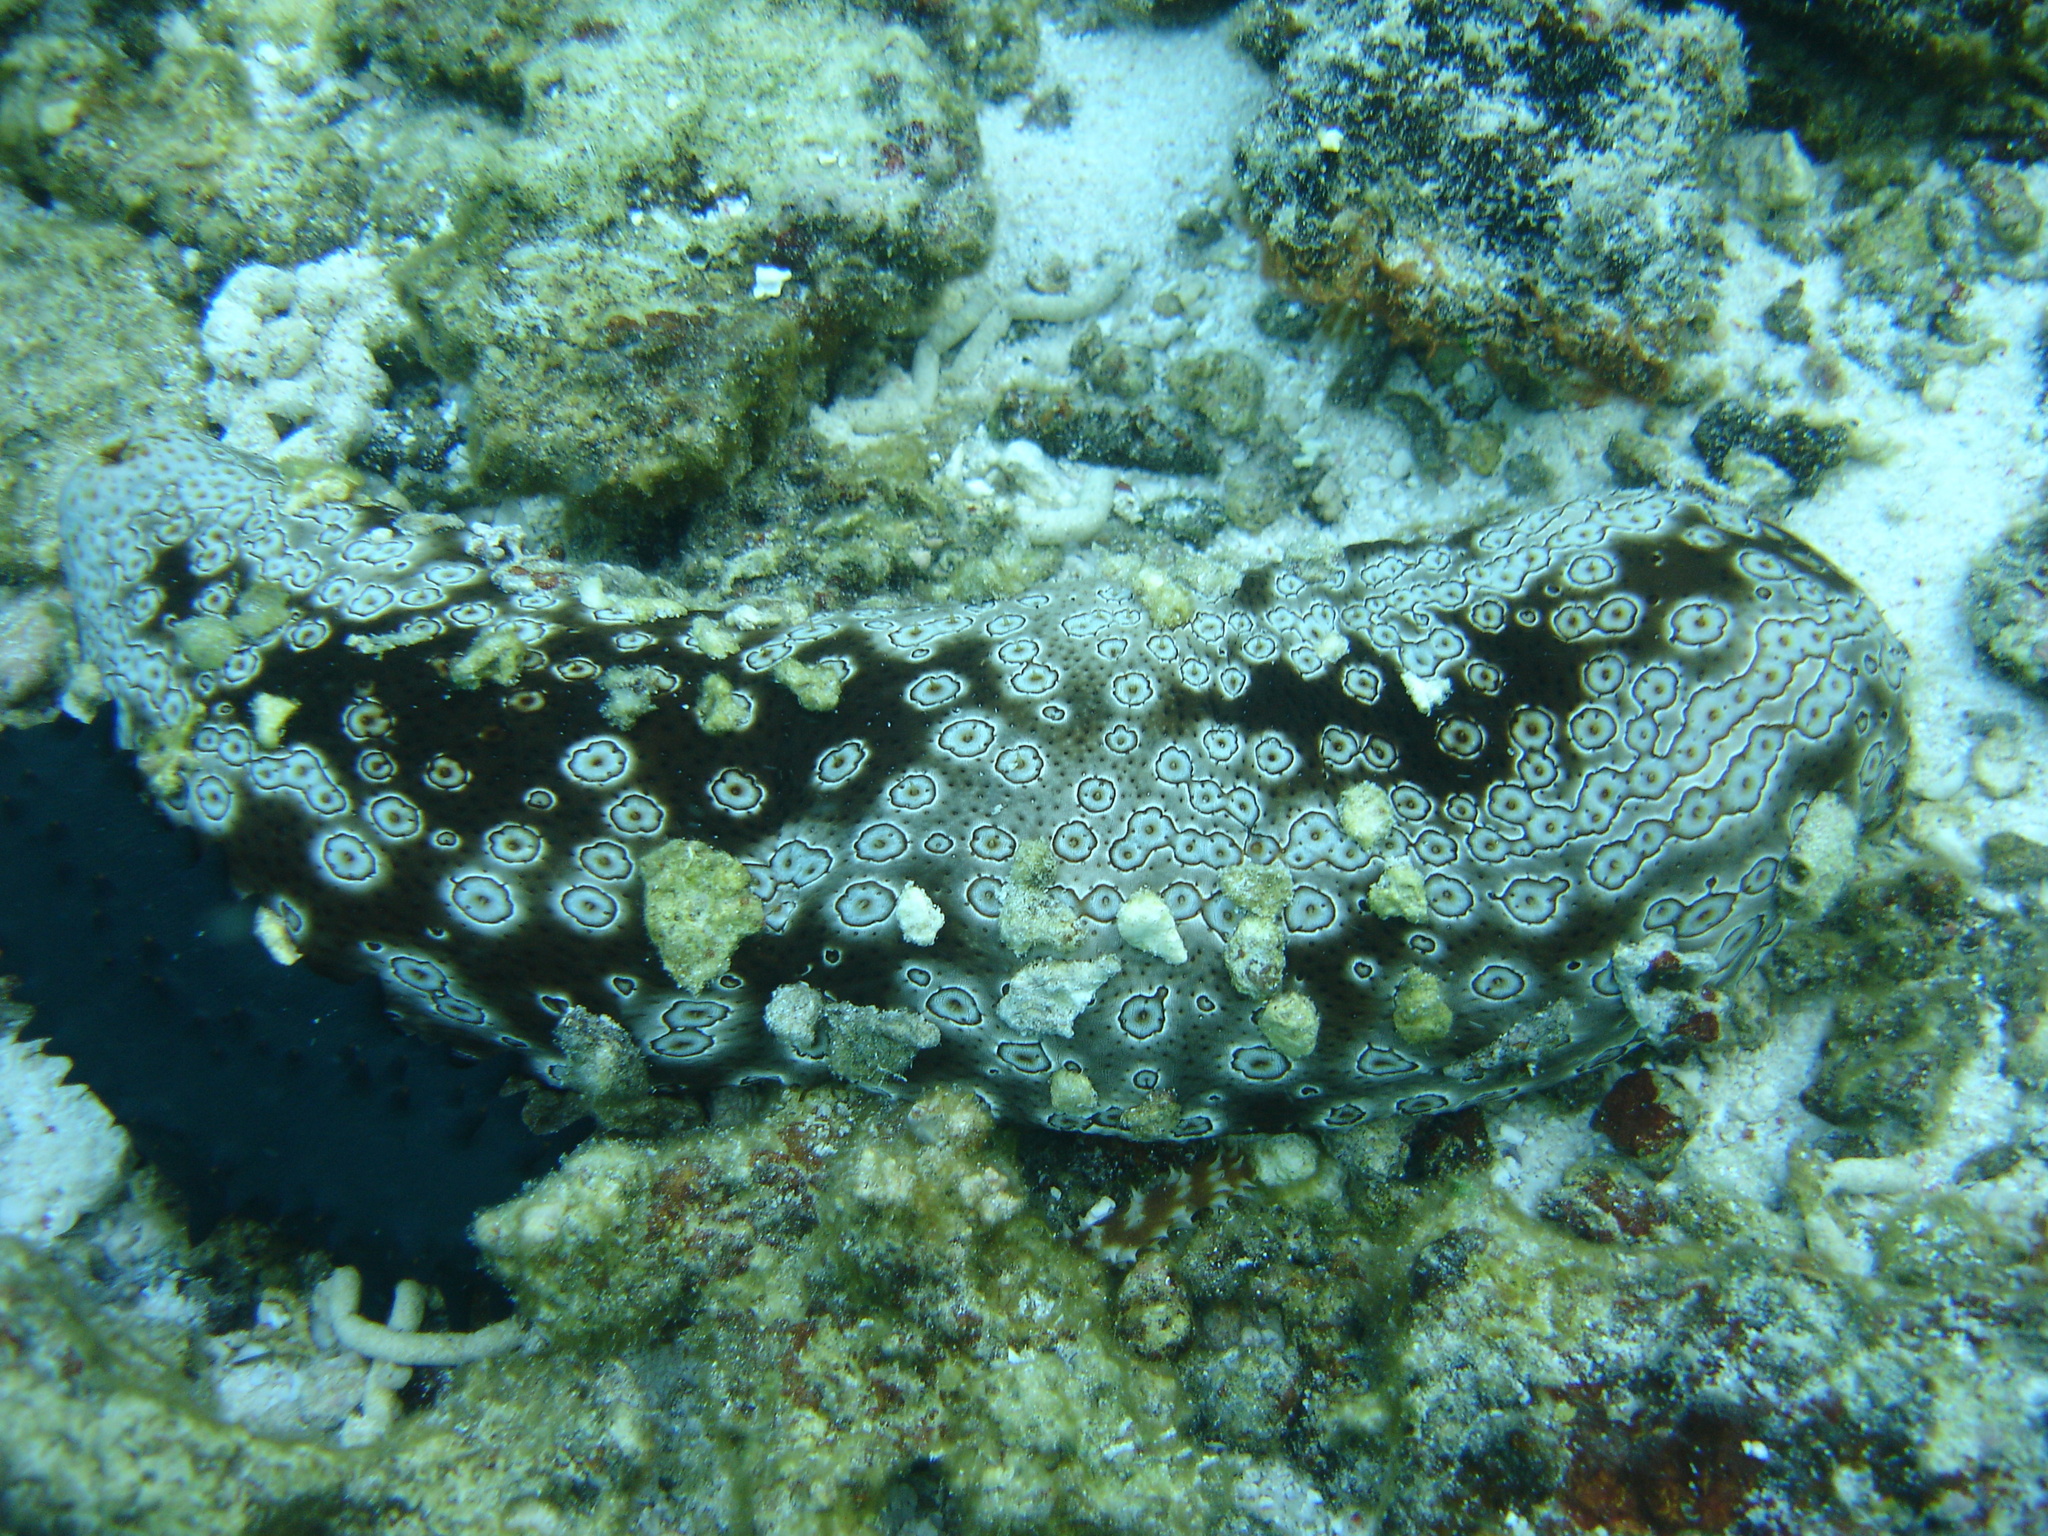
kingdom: Animalia
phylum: Echinodermata
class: Holothuroidea
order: Holothuriida
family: Holothuriidae
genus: Bohadschia
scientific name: Bohadschia argus
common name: Leopardfish
